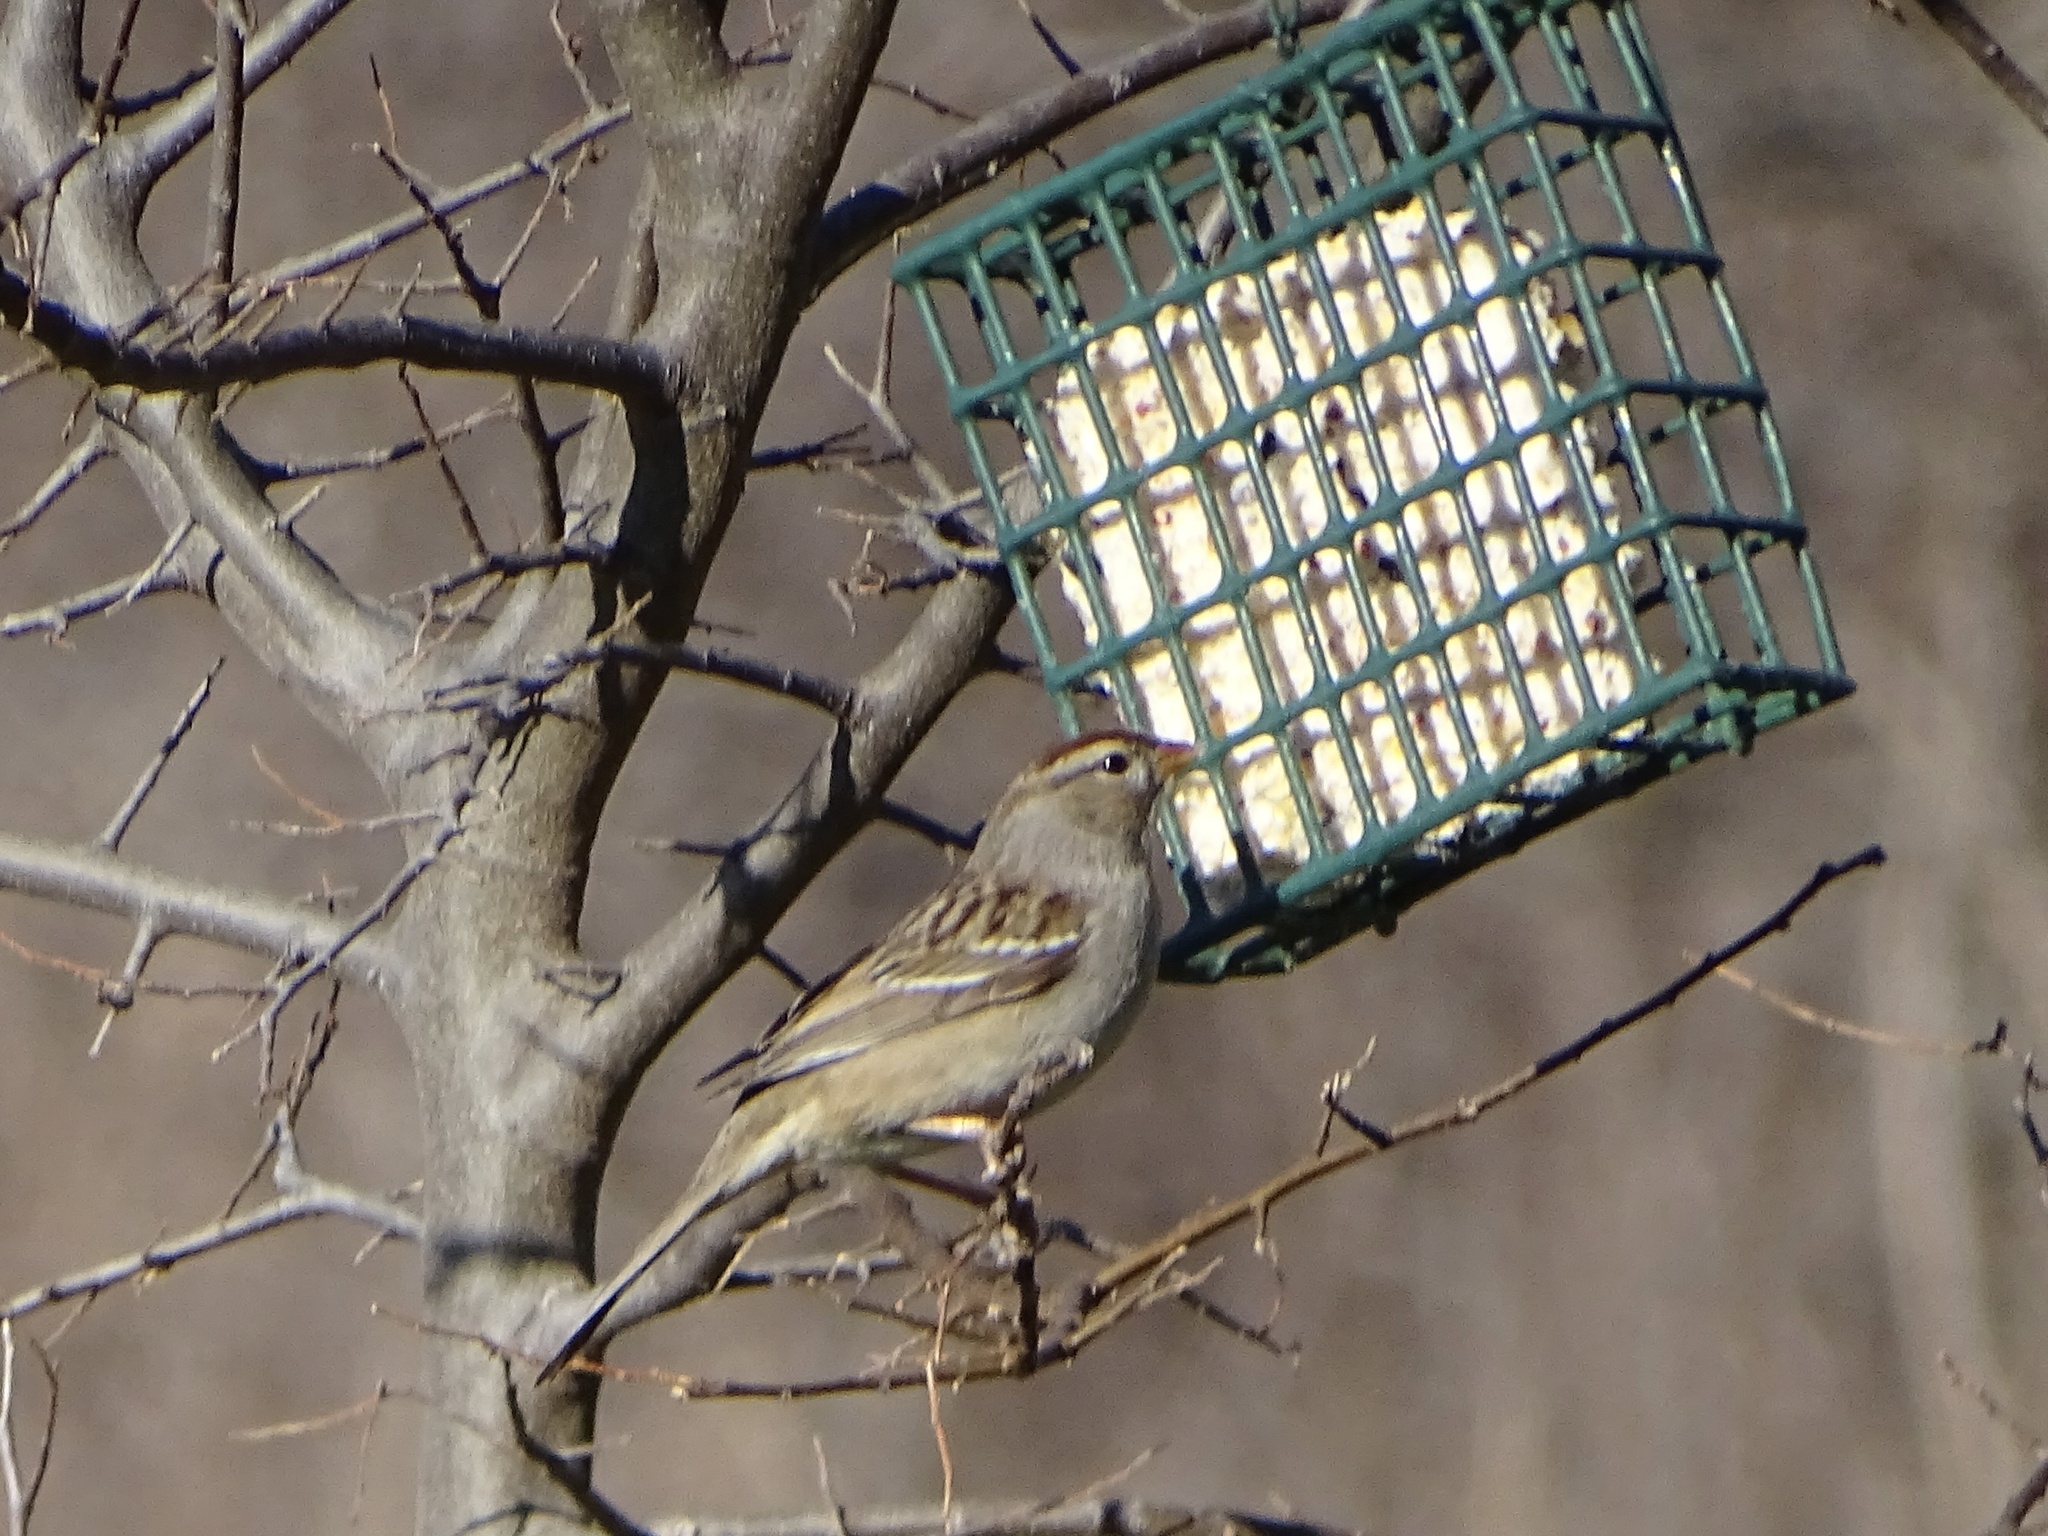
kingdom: Animalia
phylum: Chordata
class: Aves
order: Passeriformes
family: Passerellidae
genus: Zonotrichia
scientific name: Zonotrichia leucophrys
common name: White-crowned sparrow
